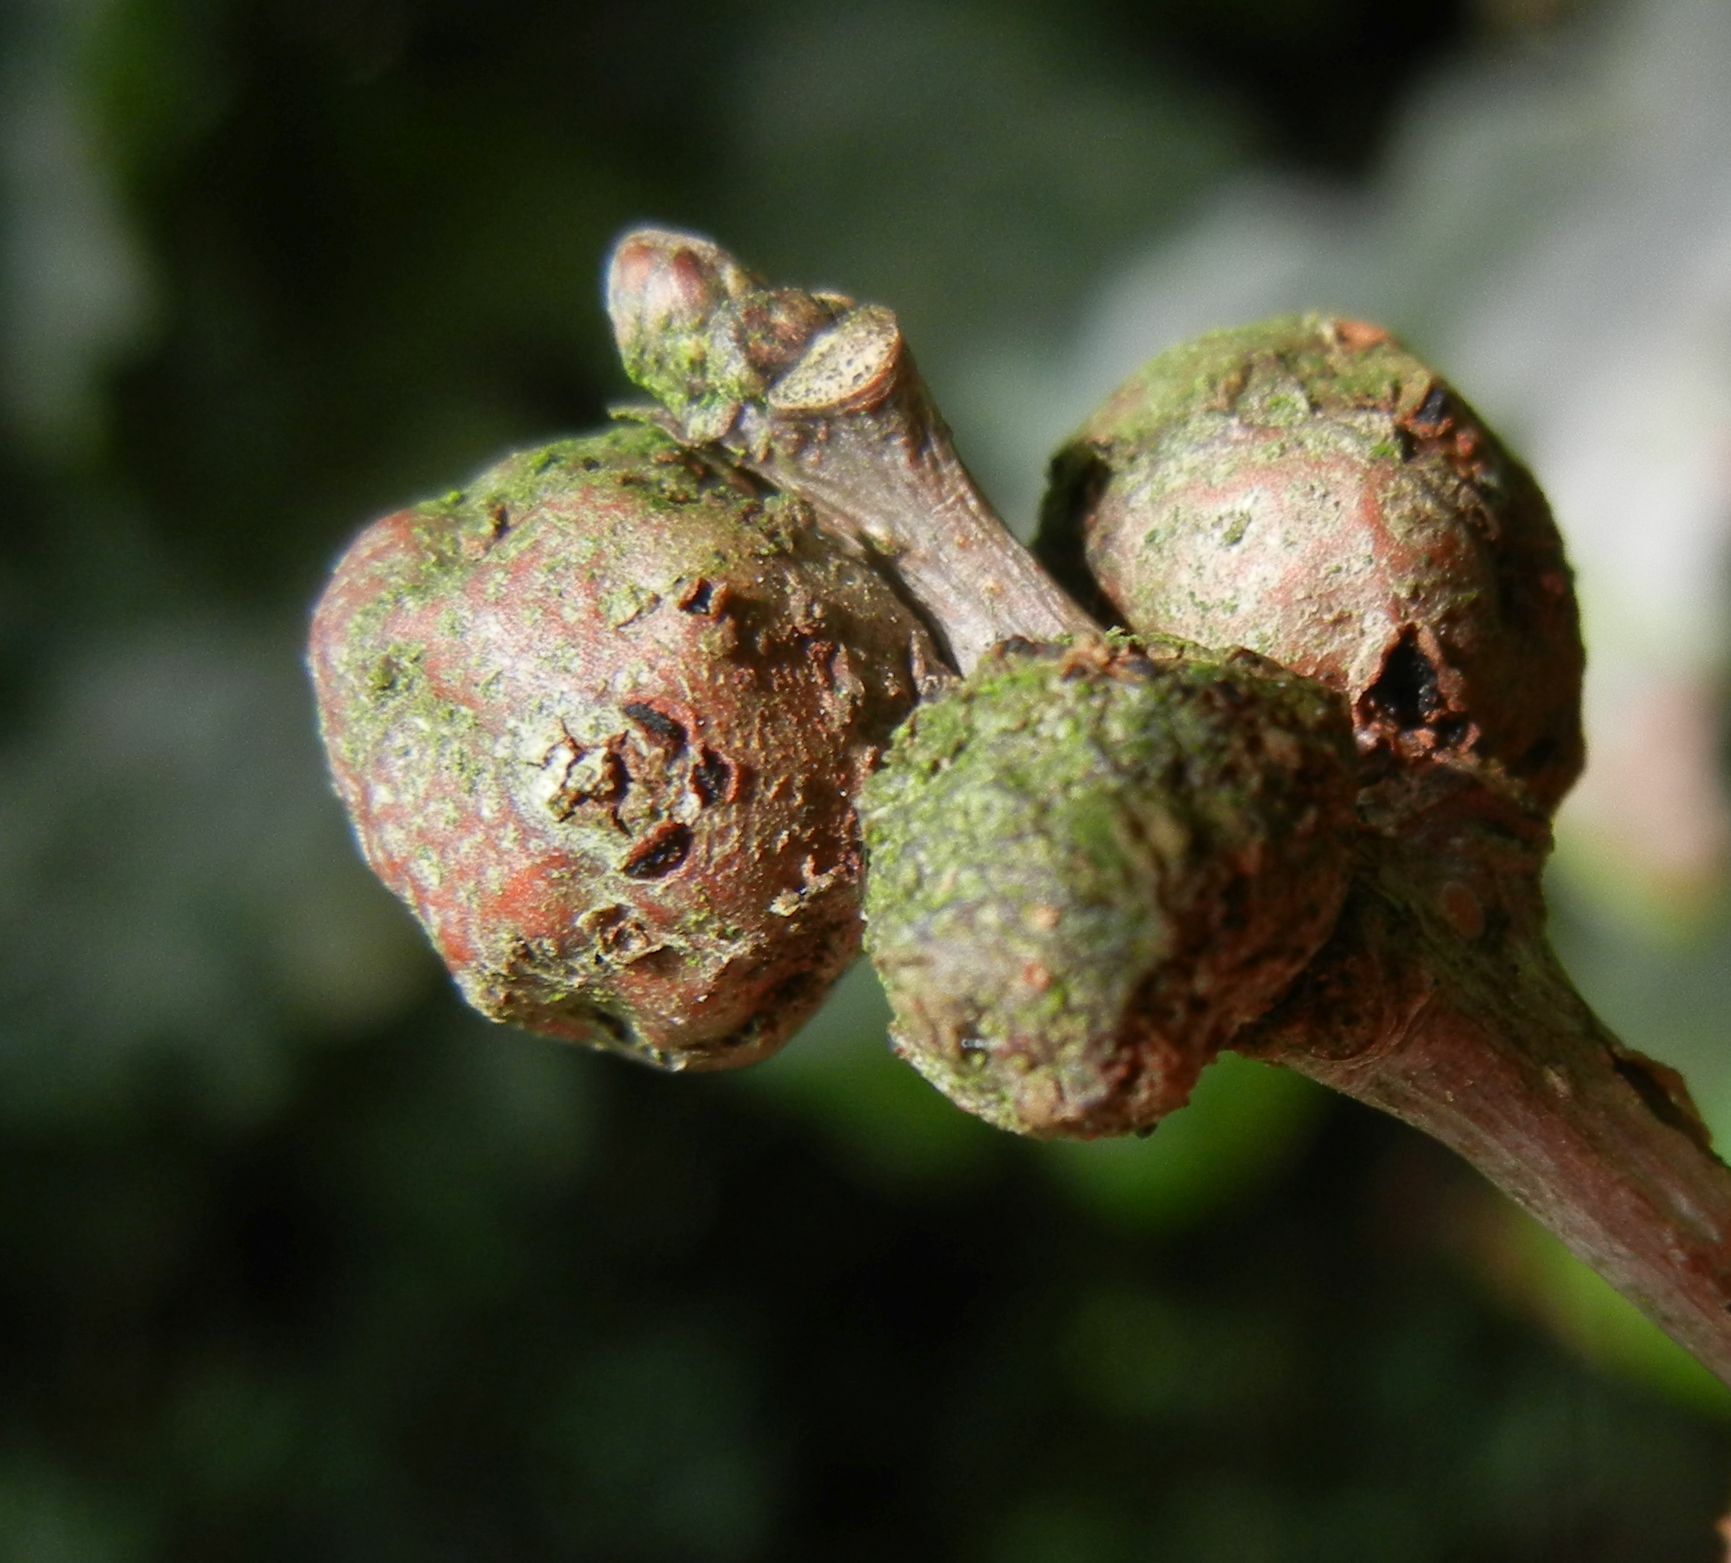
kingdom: Animalia
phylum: Arthropoda
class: Insecta
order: Hymenoptera
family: Cynipidae
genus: Andricus
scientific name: Andricus lignicolus
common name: Cola-nut gall
